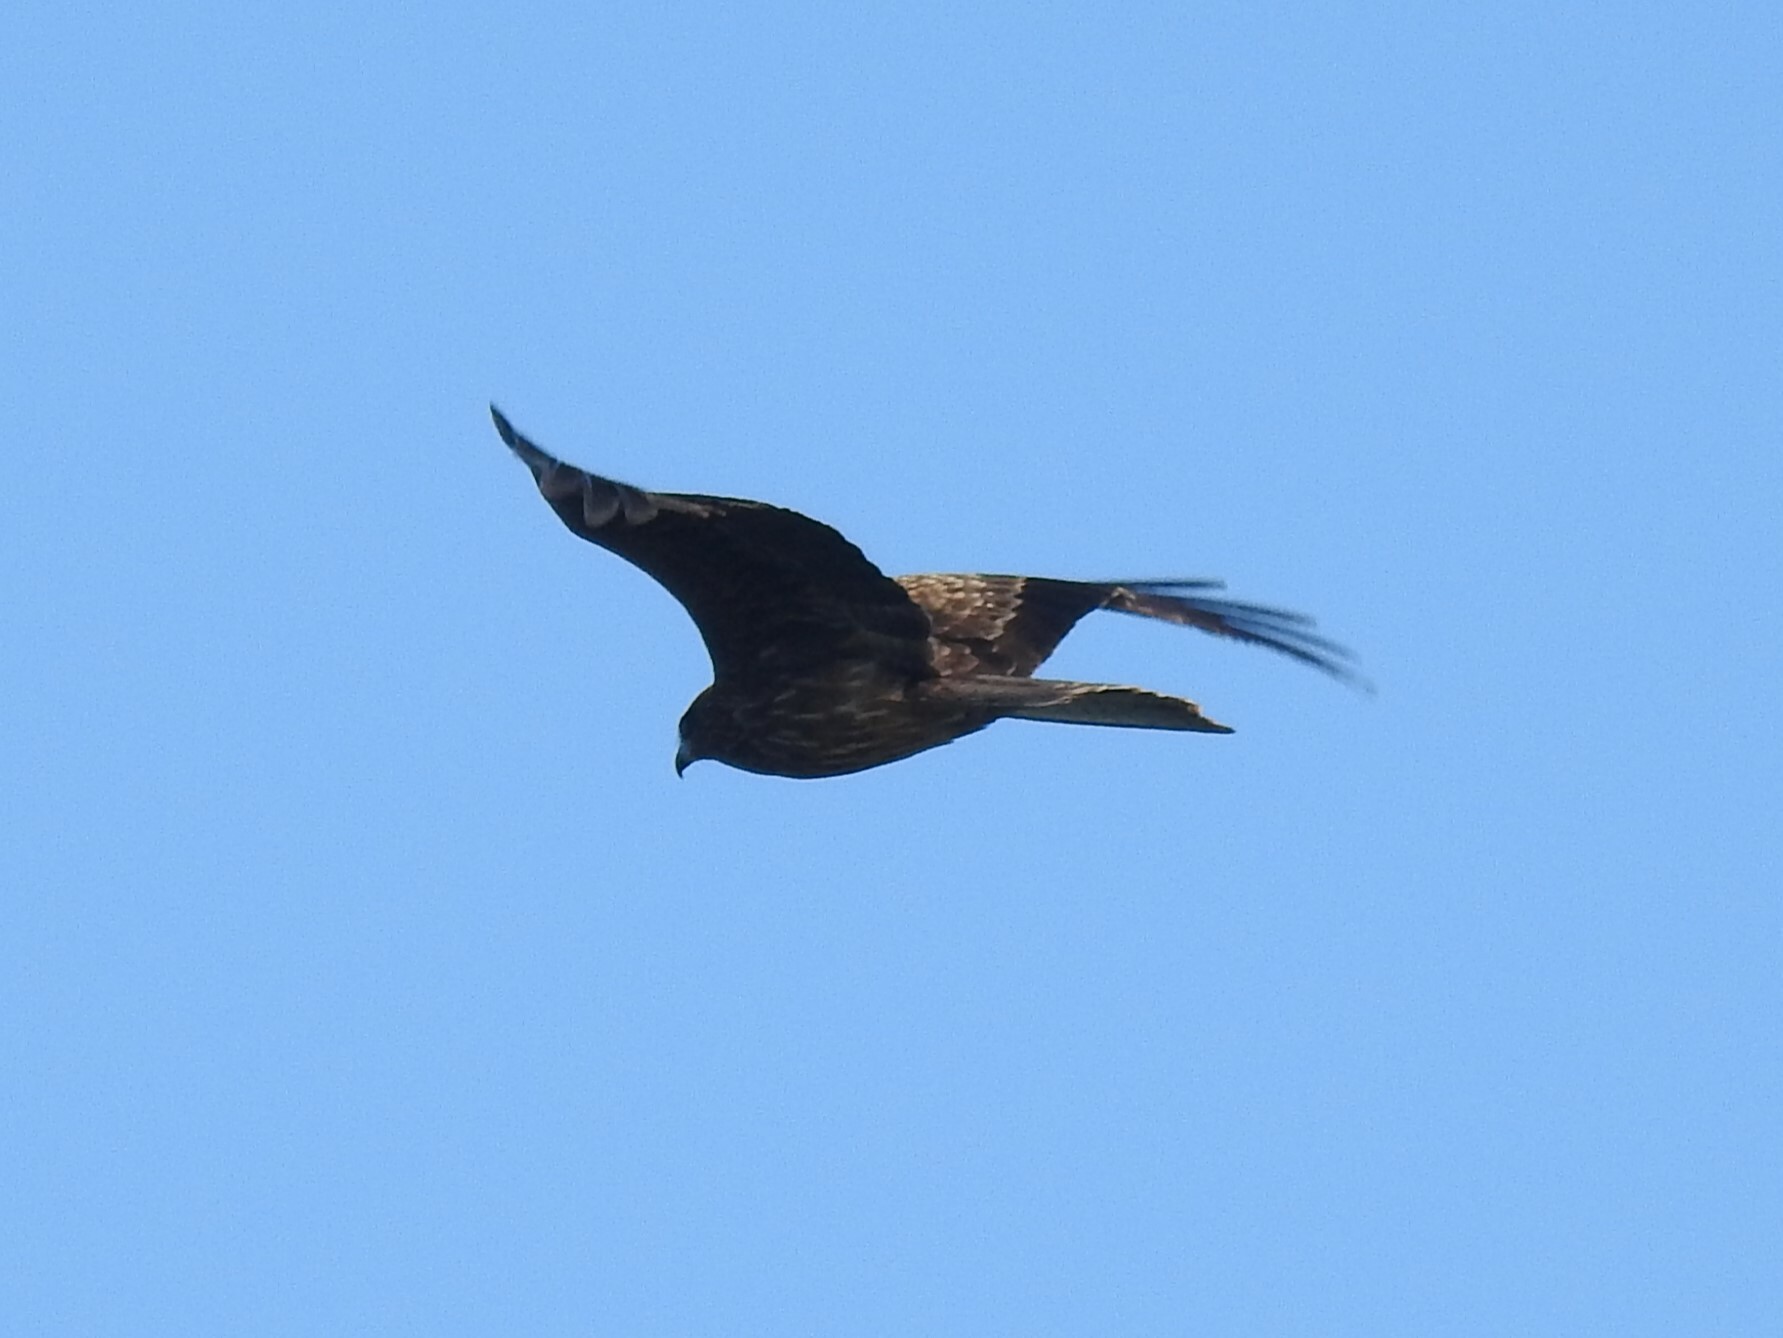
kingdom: Animalia
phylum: Chordata
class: Aves
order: Accipitriformes
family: Accipitridae
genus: Milvus
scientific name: Milvus migrans
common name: Black kite
